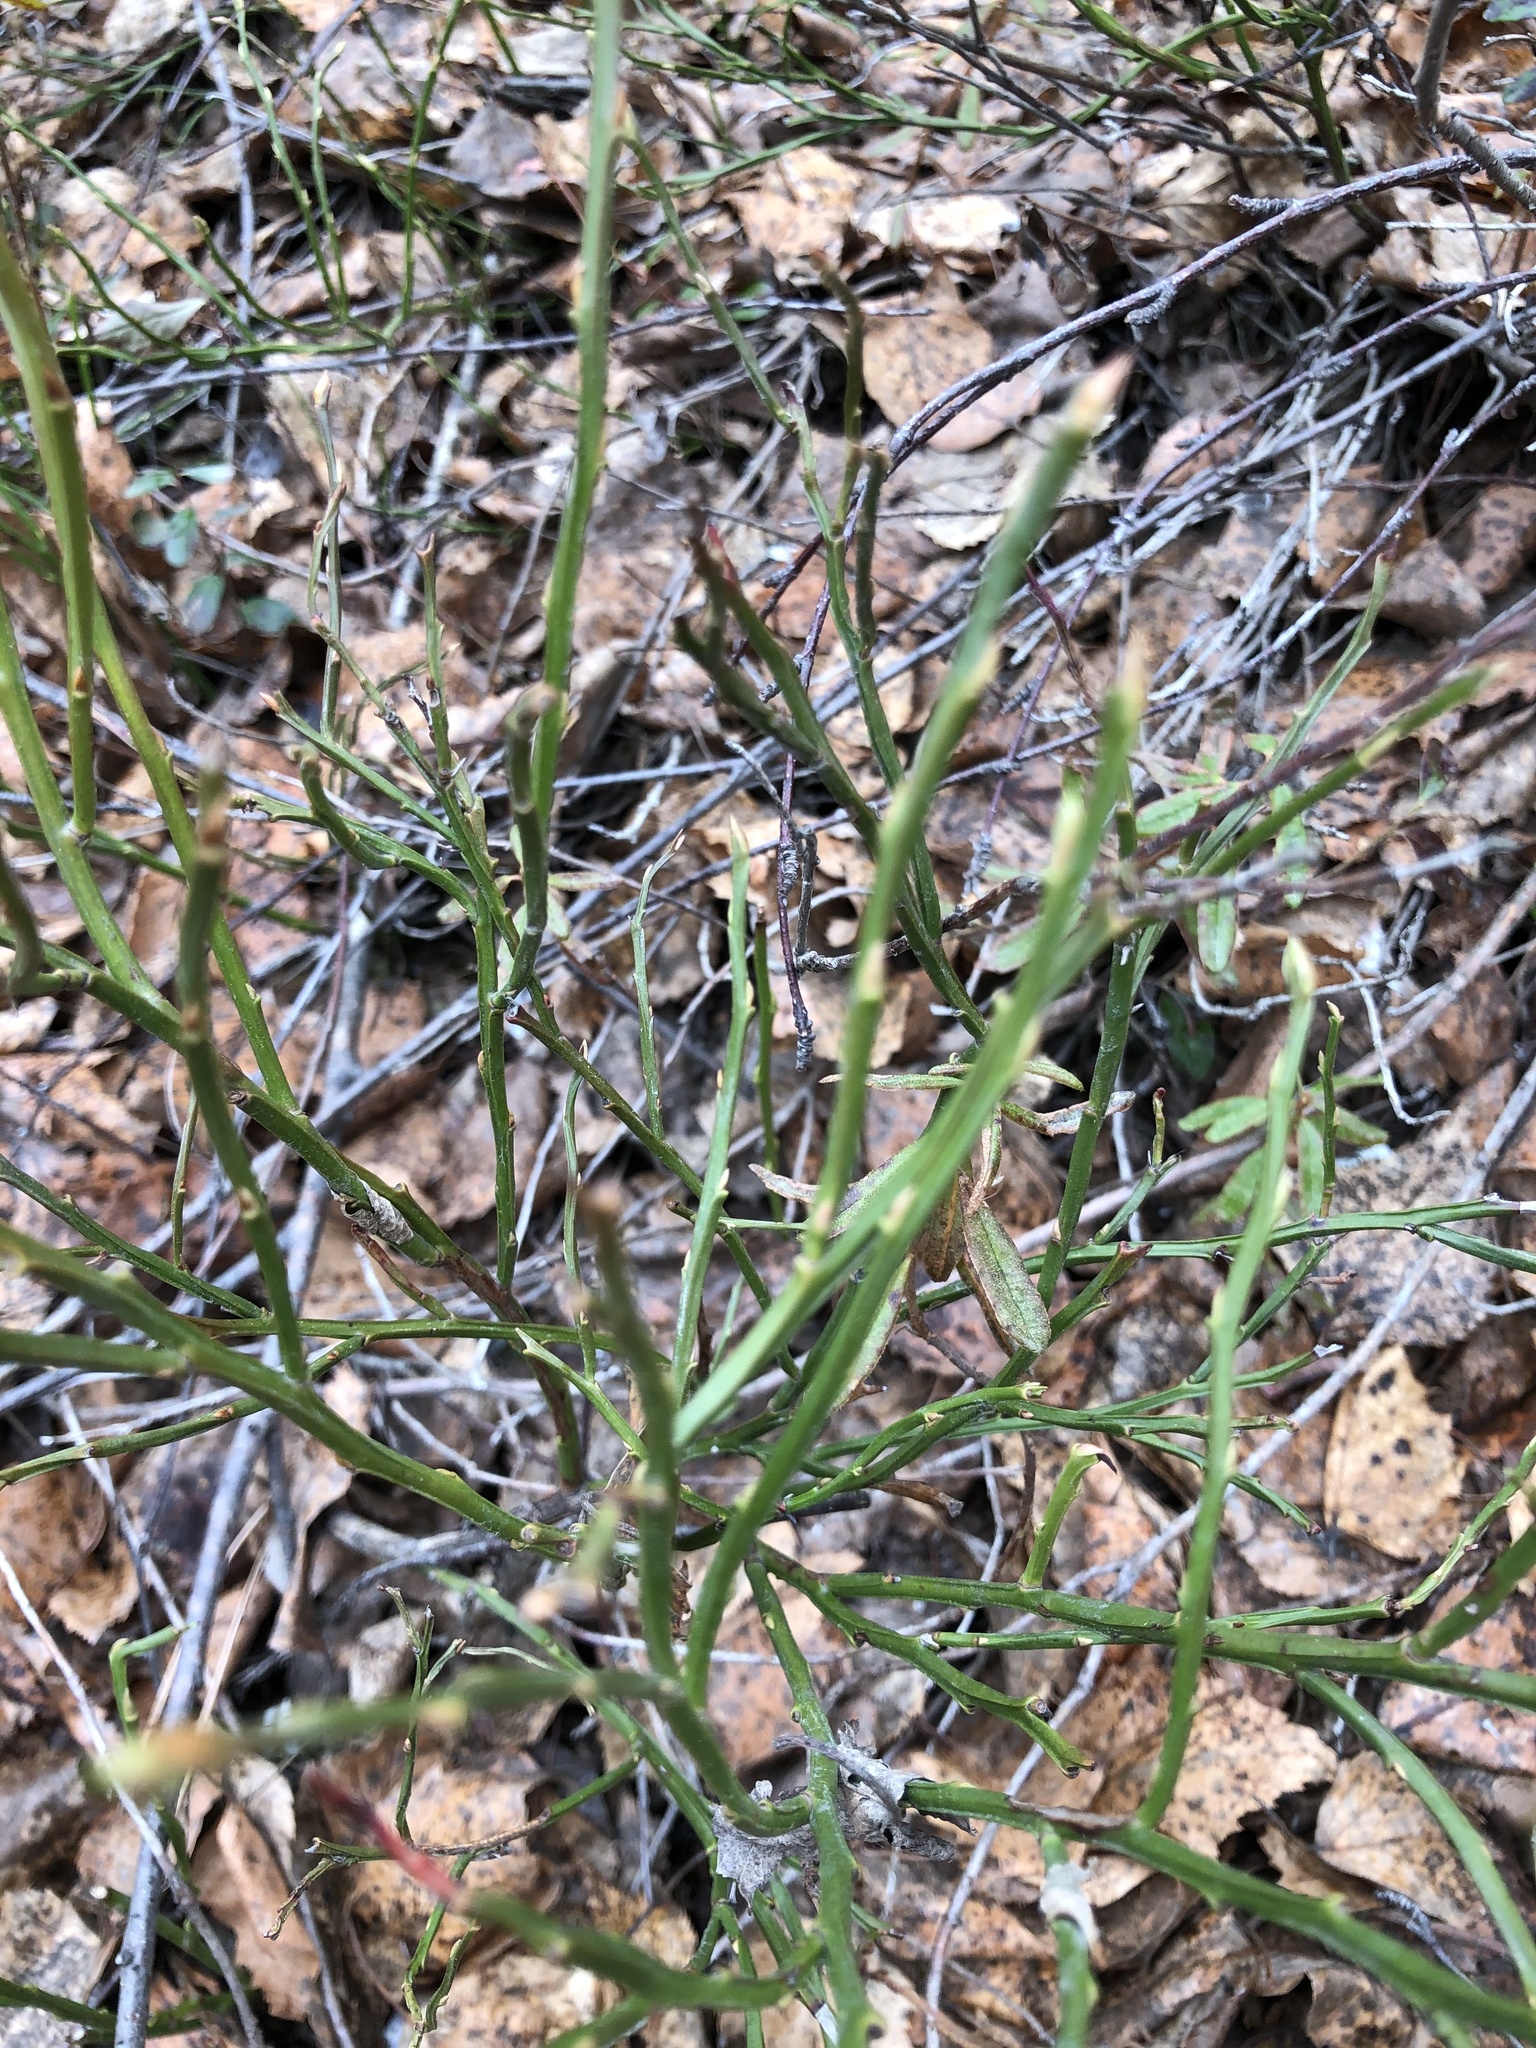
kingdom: Plantae
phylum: Tracheophyta
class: Magnoliopsida
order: Ericales
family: Ericaceae
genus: Vaccinium
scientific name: Vaccinium myrtillus
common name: Bilberry
